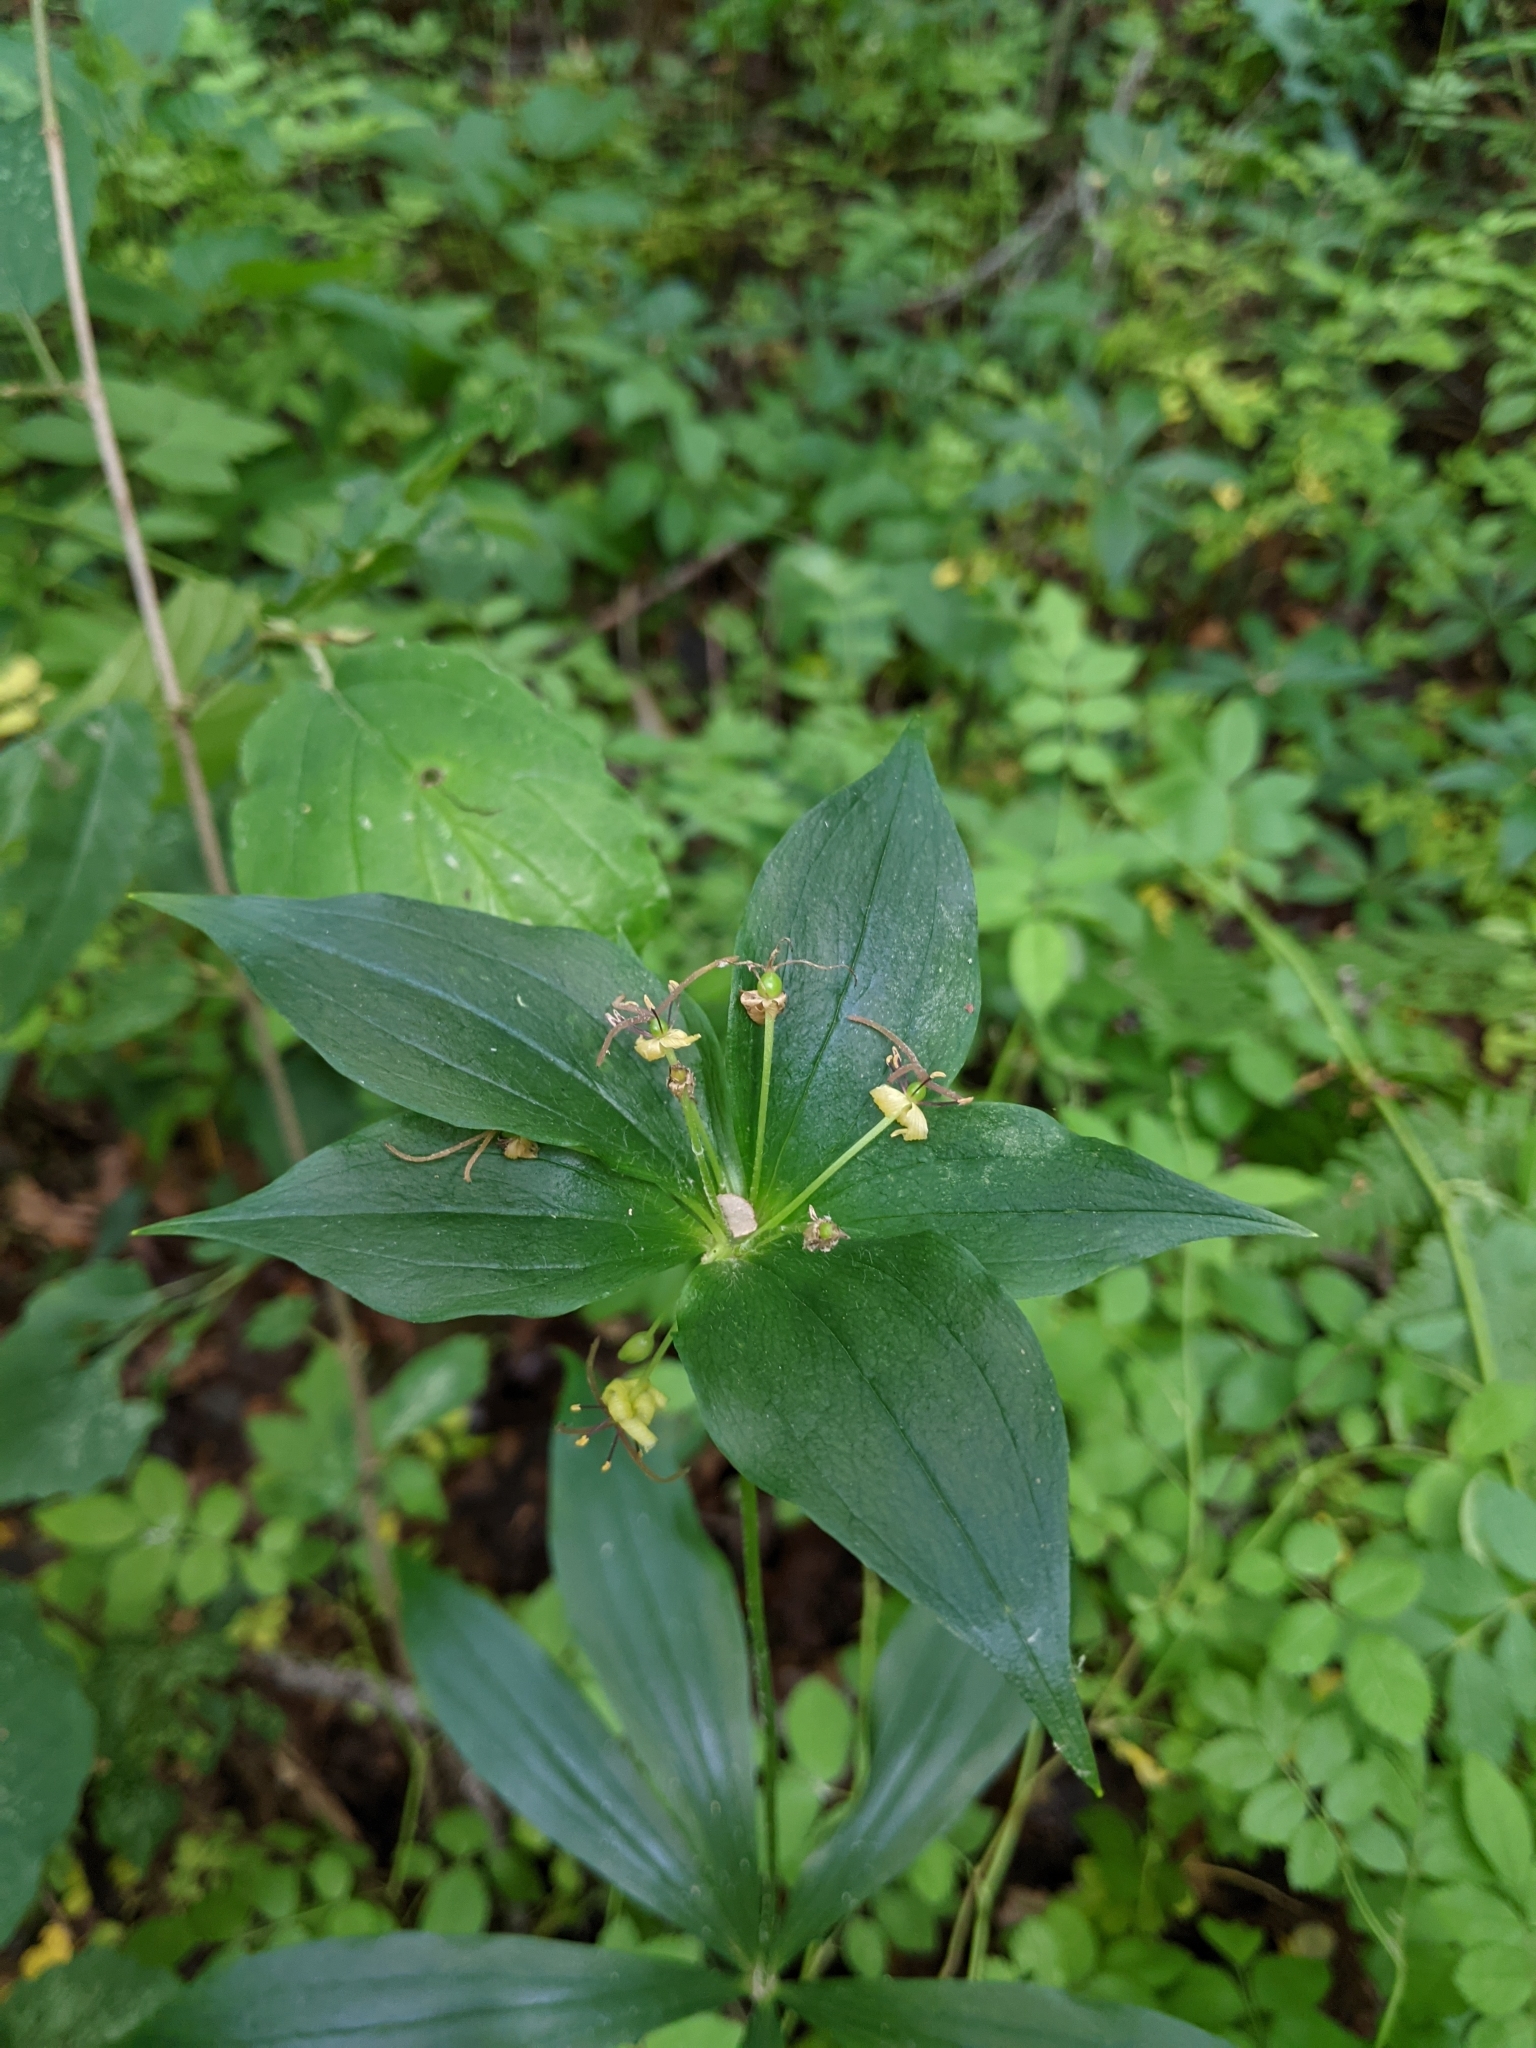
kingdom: Plantae
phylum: Tracheophyta
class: Liliopsida
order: Liliales
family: Liliaceae
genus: Medeola
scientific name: Medeola virginiana
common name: Indian cucumber-root
